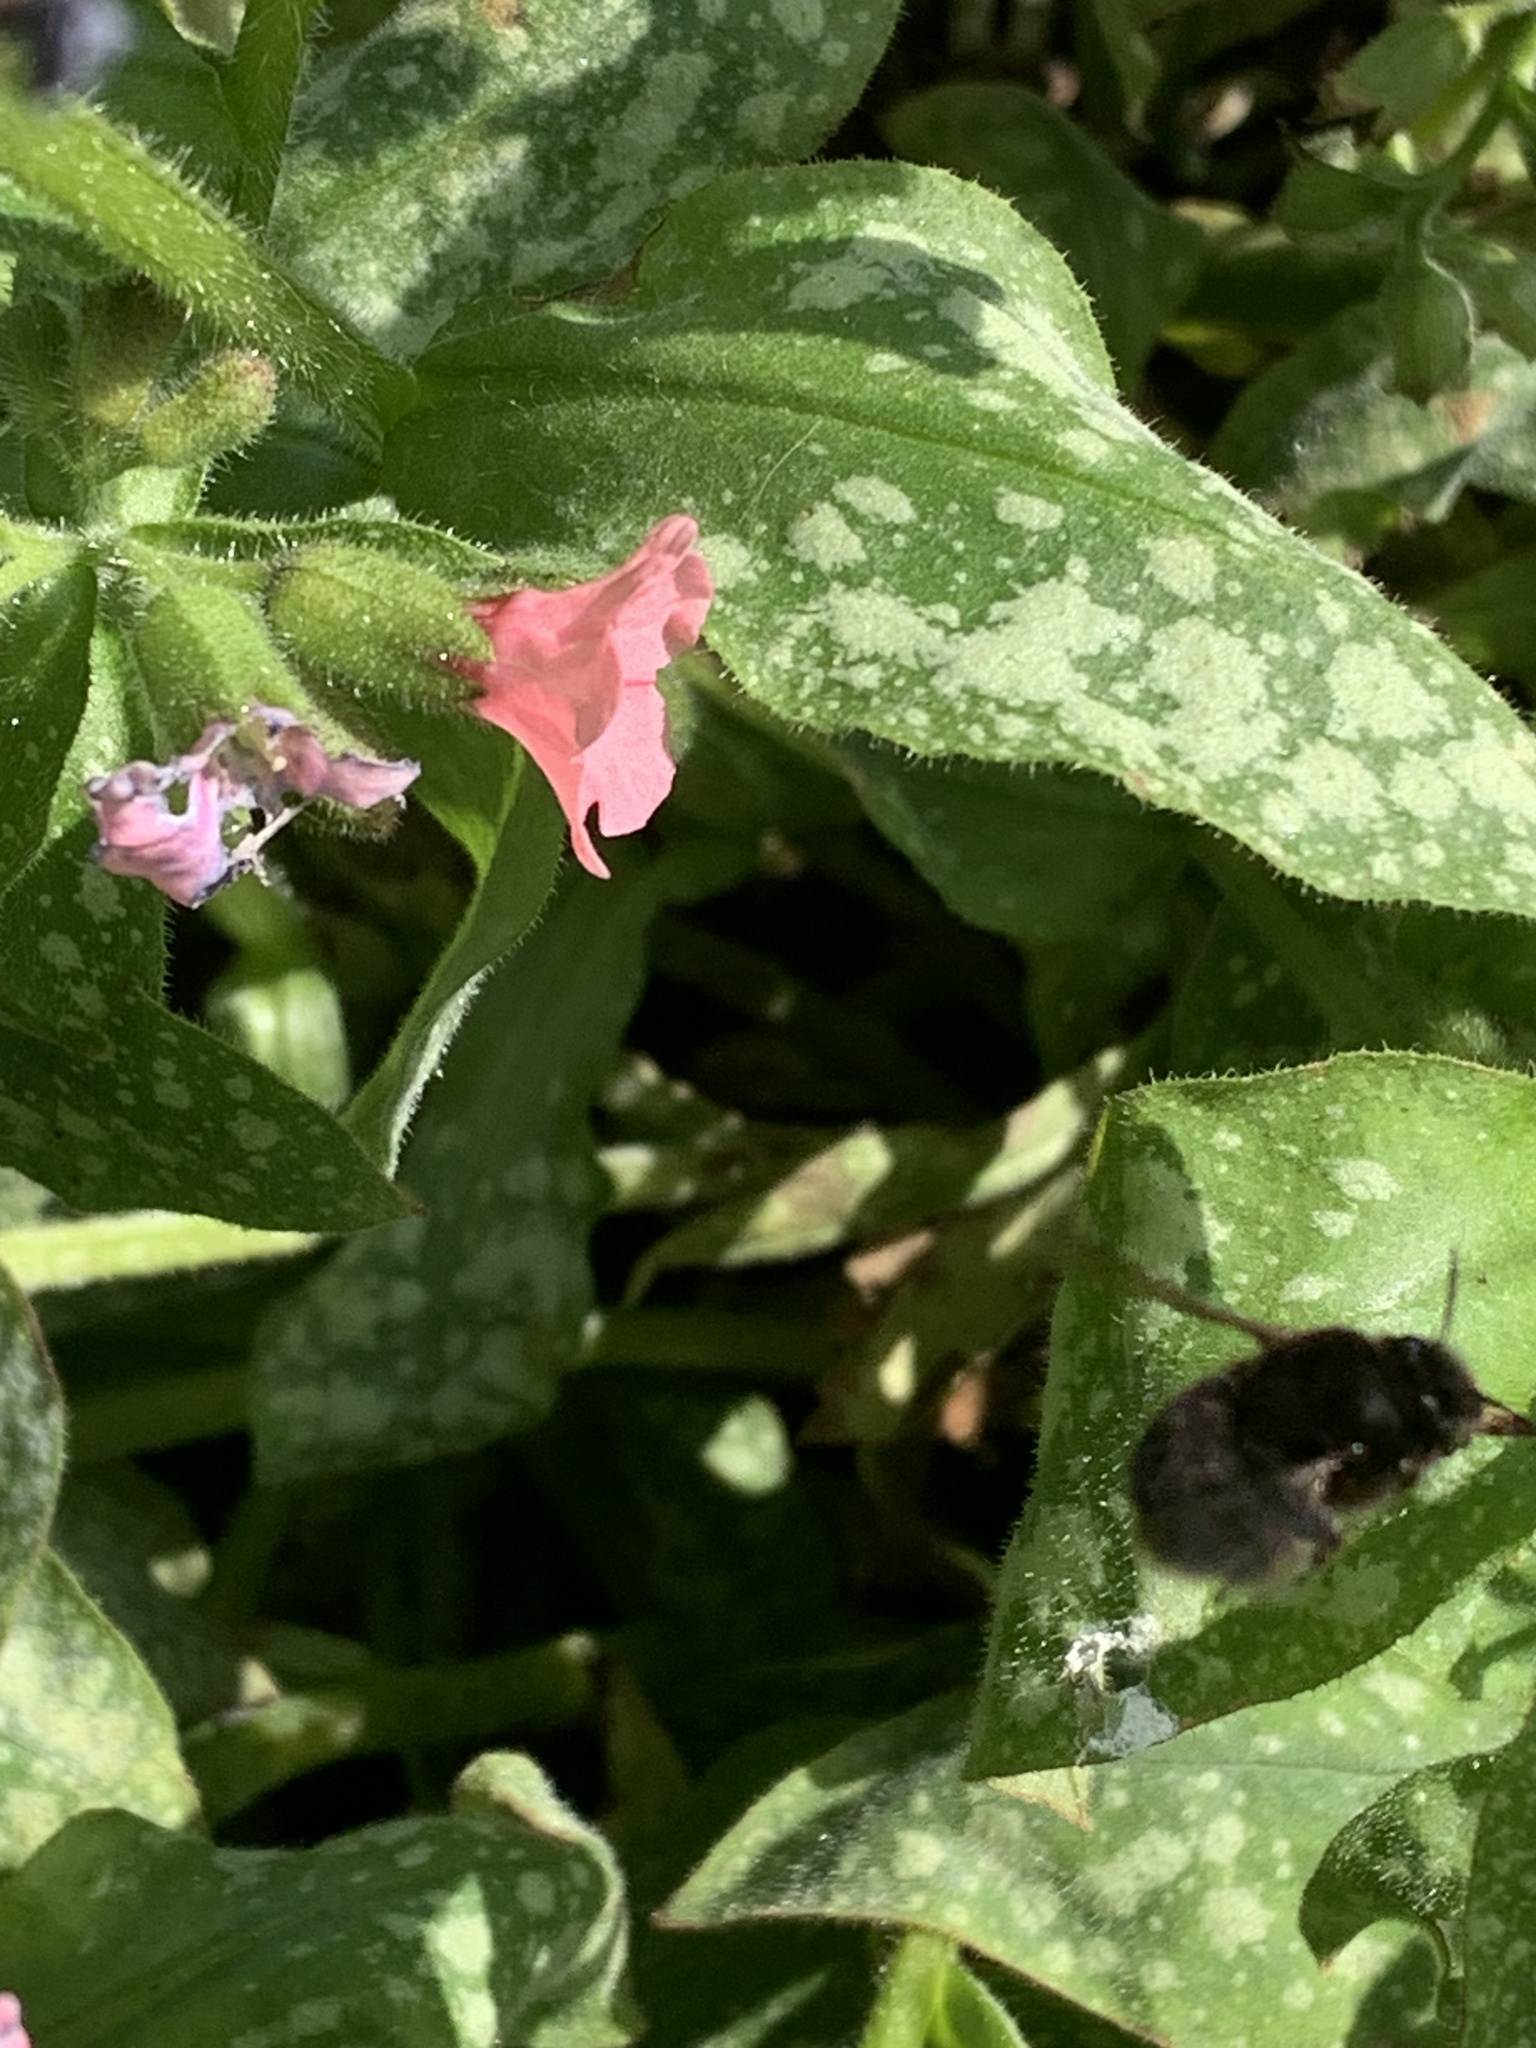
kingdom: Animalia
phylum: Arthropoda
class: Insecta
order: Hymenoptera
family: Apidae
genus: Anthophora
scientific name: Anthophora plumipes
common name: Hairy-footed flower bee
